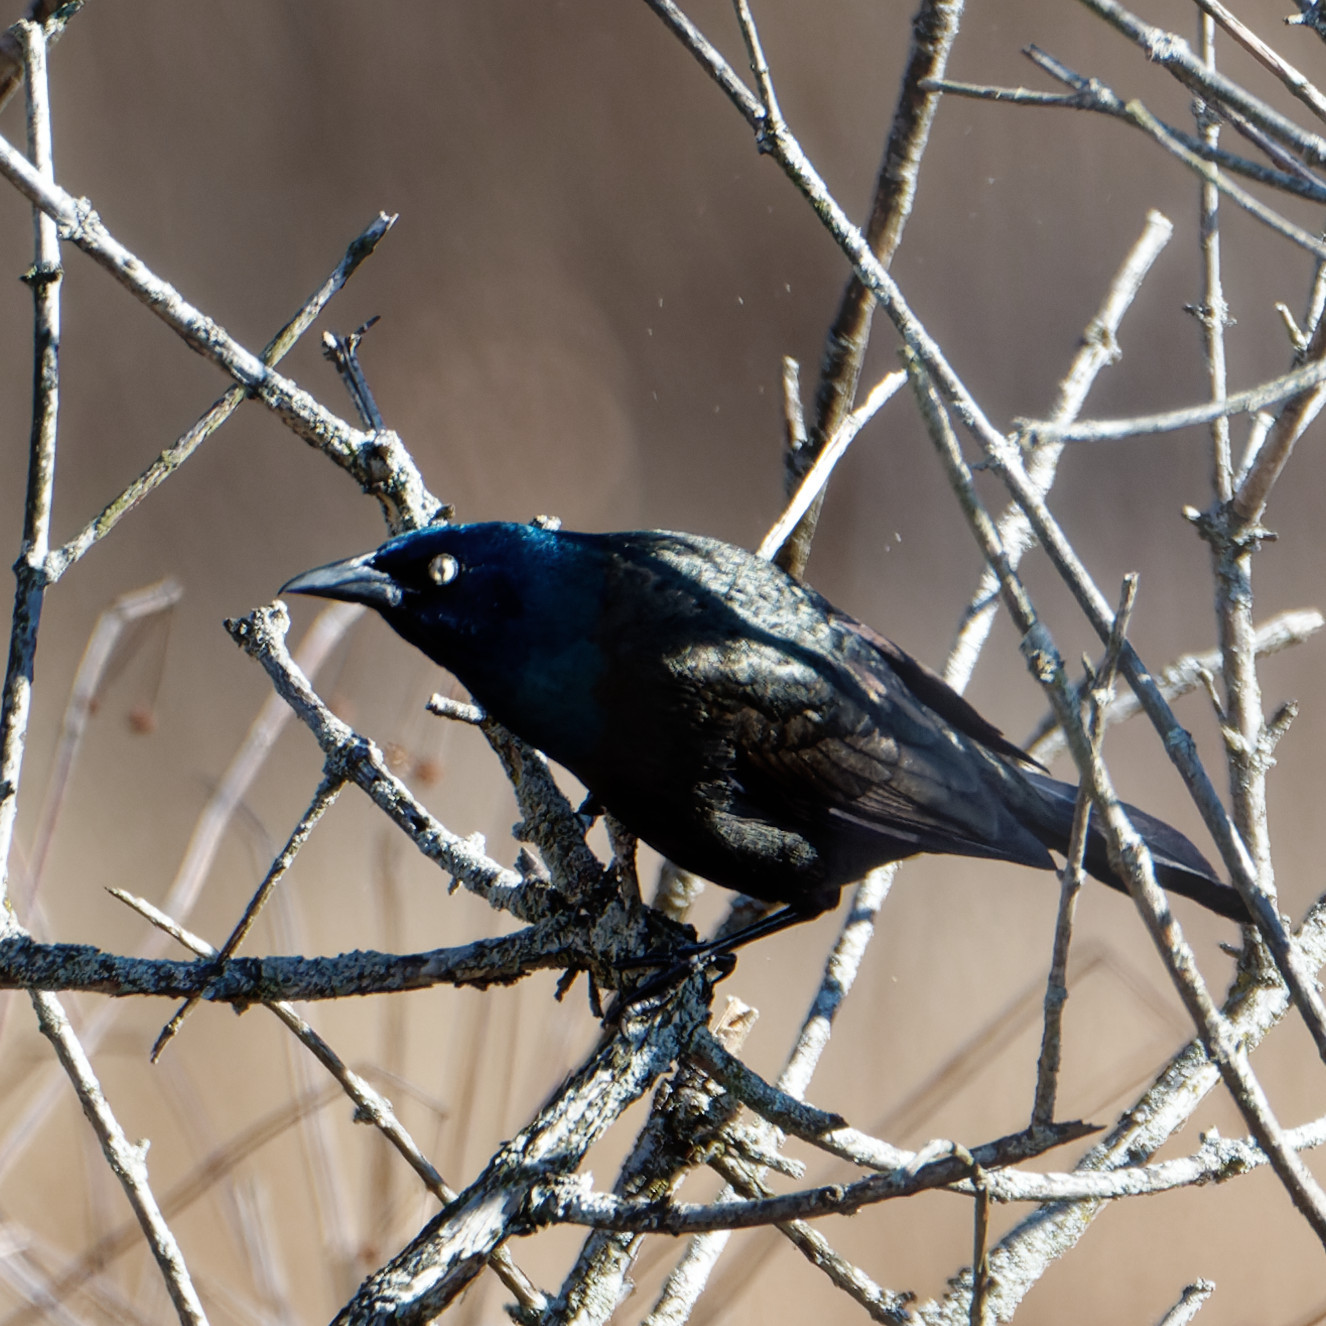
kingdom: Animalia
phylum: Chordata
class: Aves
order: Passeriformes
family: Icteridae
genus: Quiscalus
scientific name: Quiscalus quiscula
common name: Common grackle
